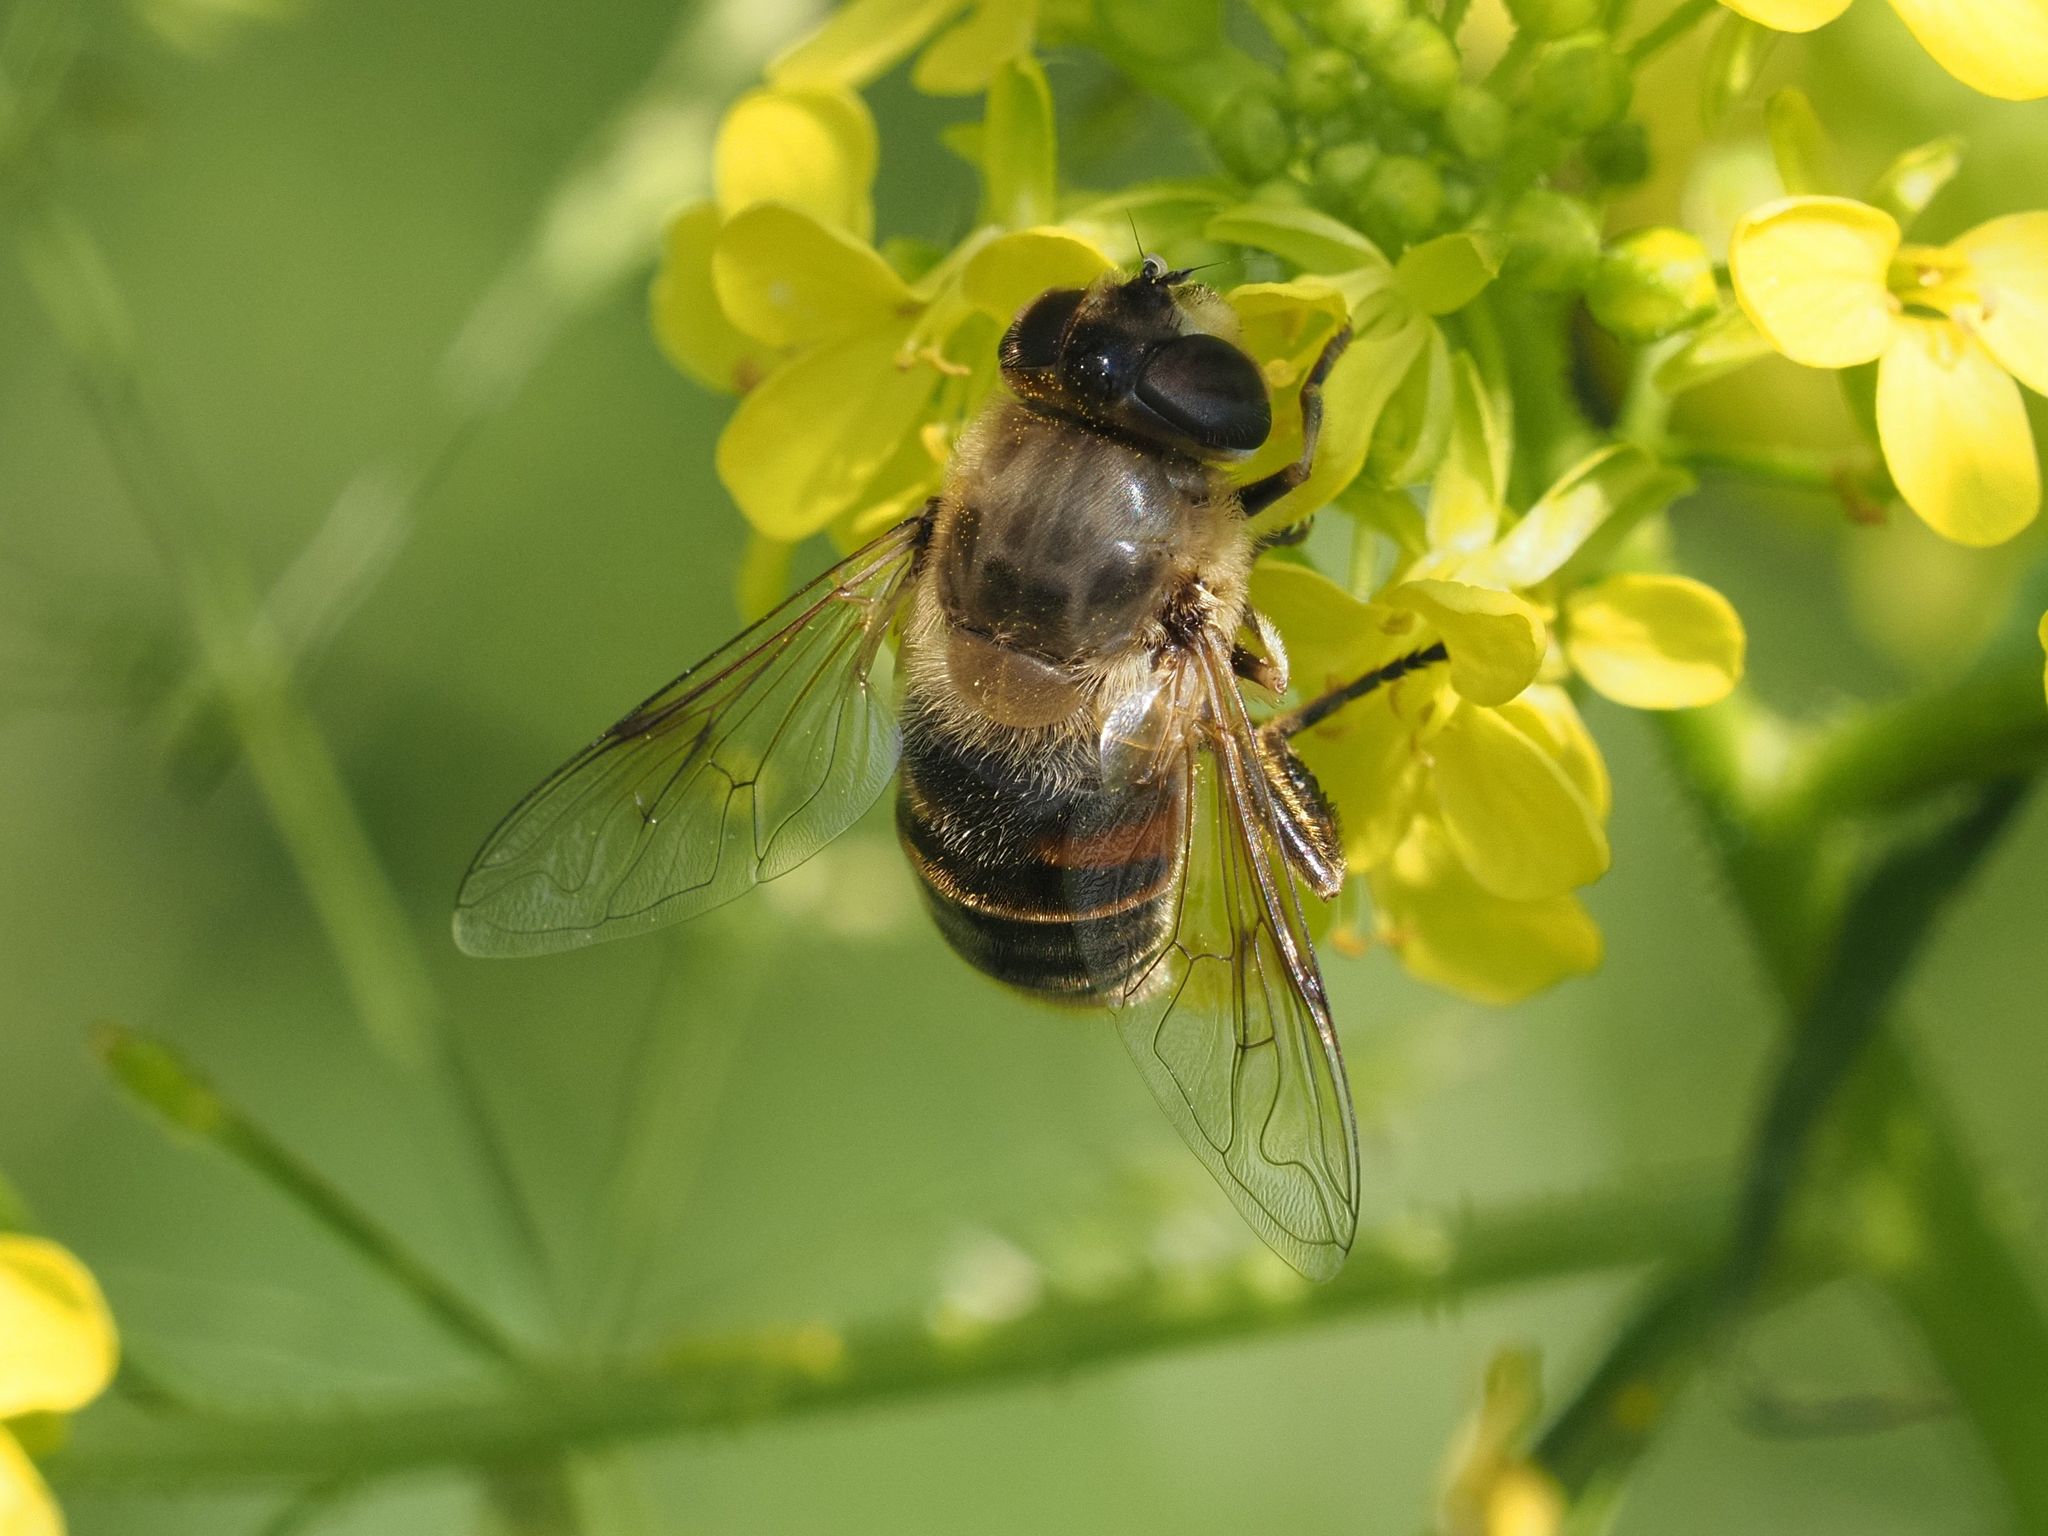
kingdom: Animalia
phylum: Arthropoda
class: Insecta
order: Diptera
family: Syrphidae
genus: Eristalis
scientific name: Eristalis tenax
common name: Drone fly
